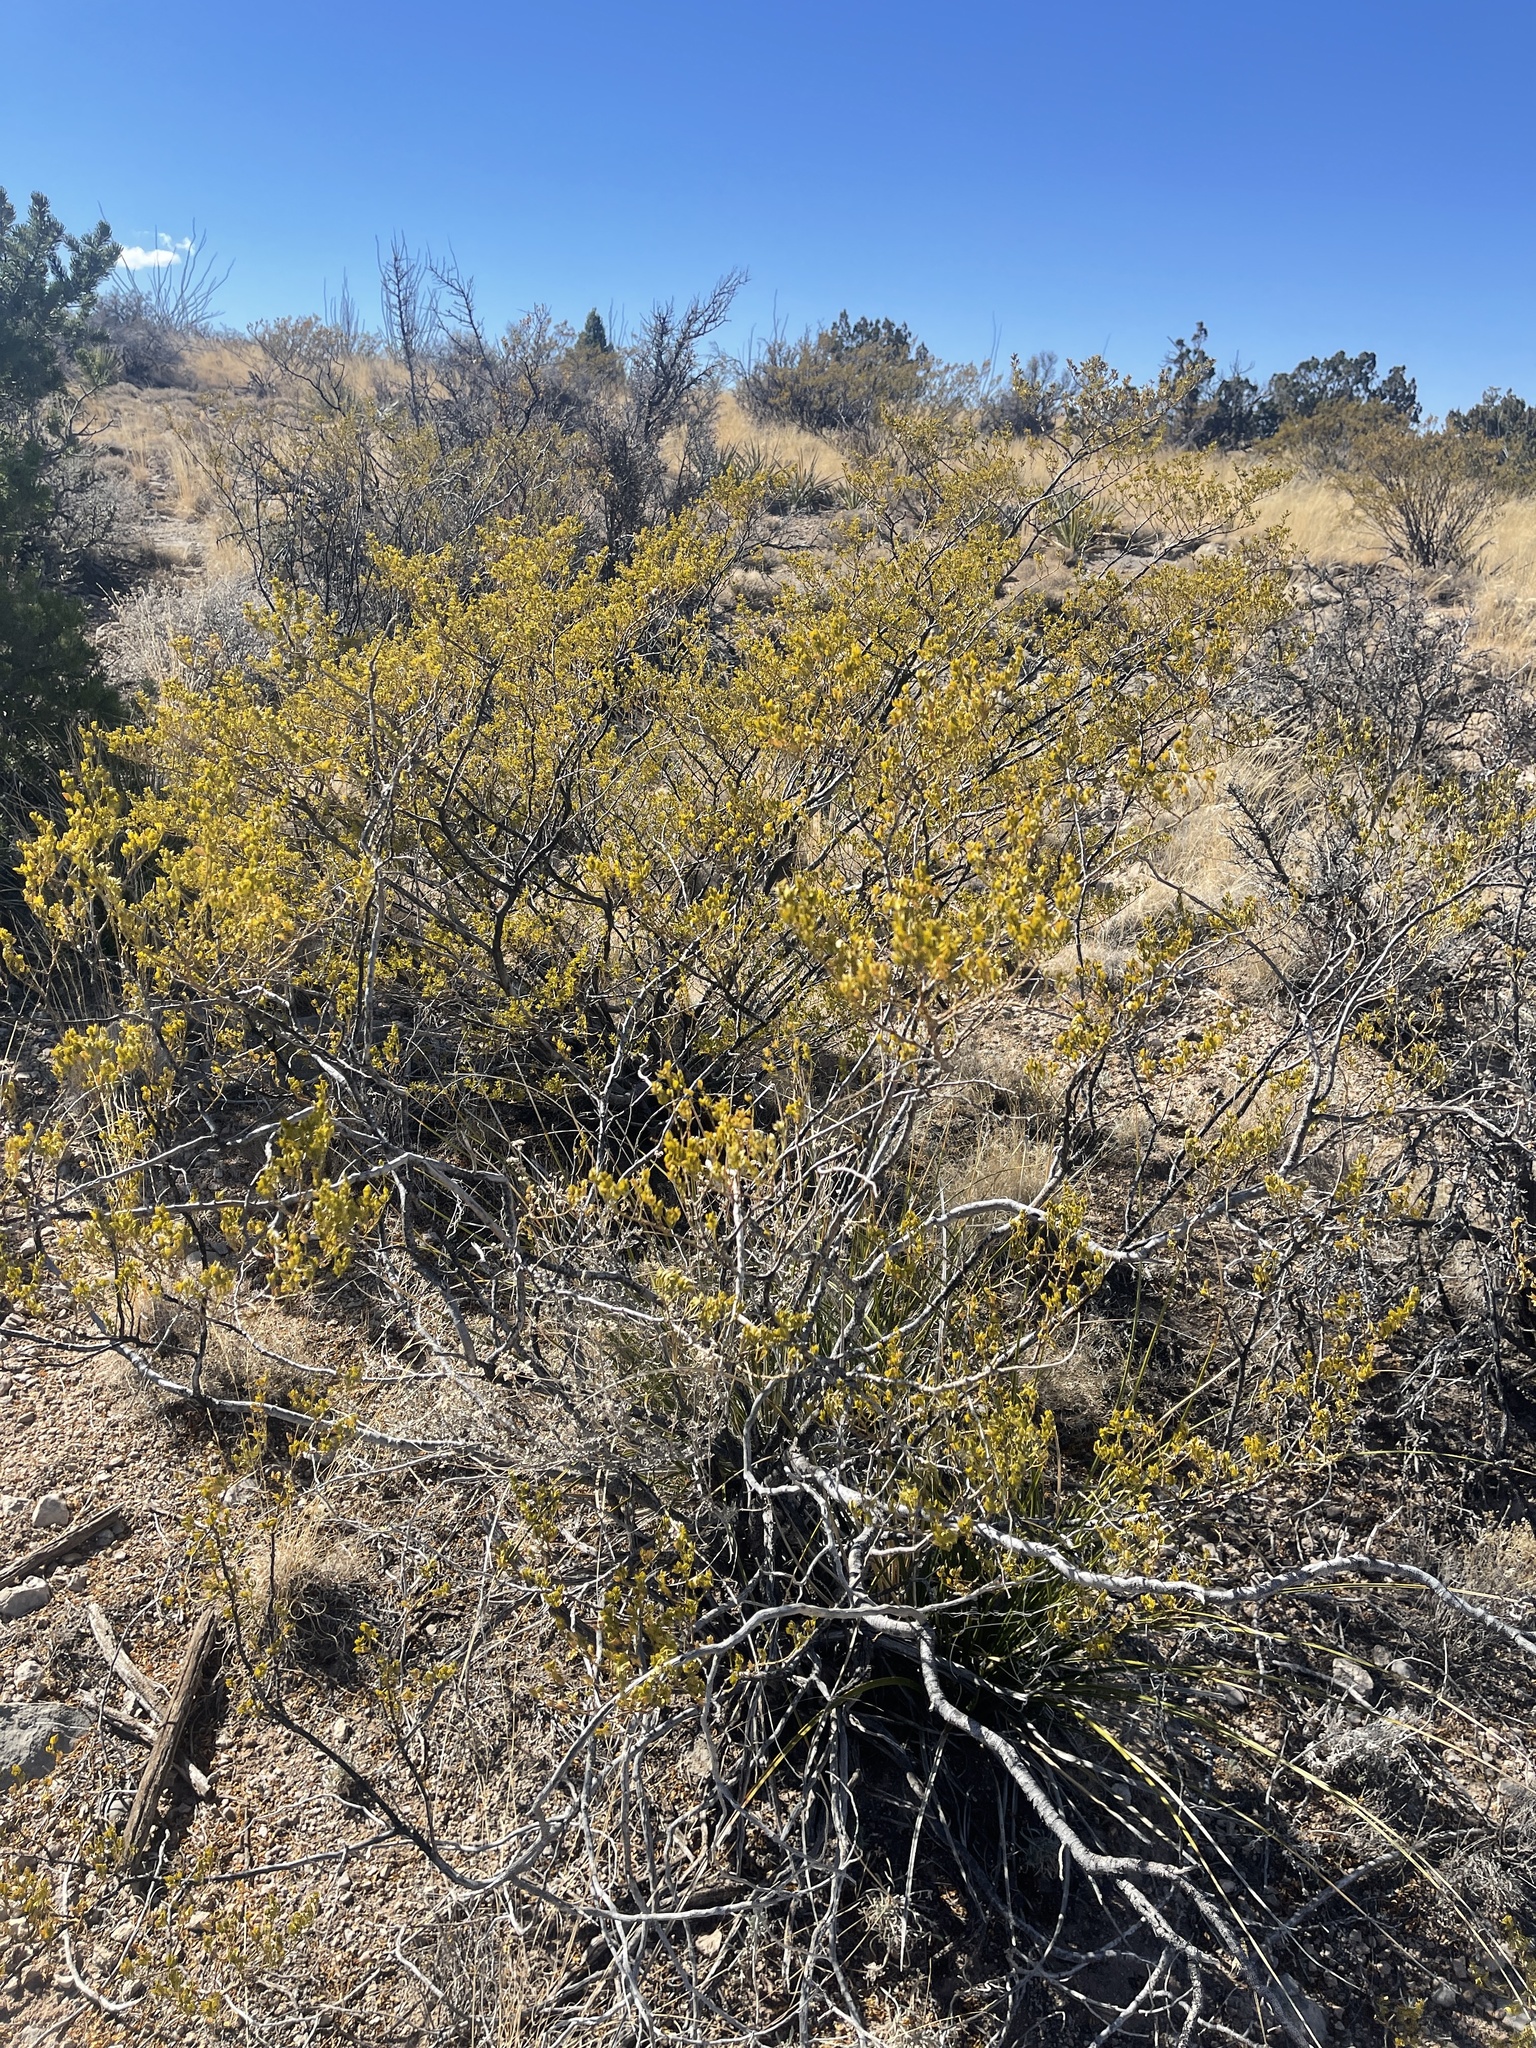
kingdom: Plantae
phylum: Tracheophyta
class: Magnoliopsida
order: Zygophyllales
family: Zygophyllaceae
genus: Larrea
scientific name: Larrea tridentata
